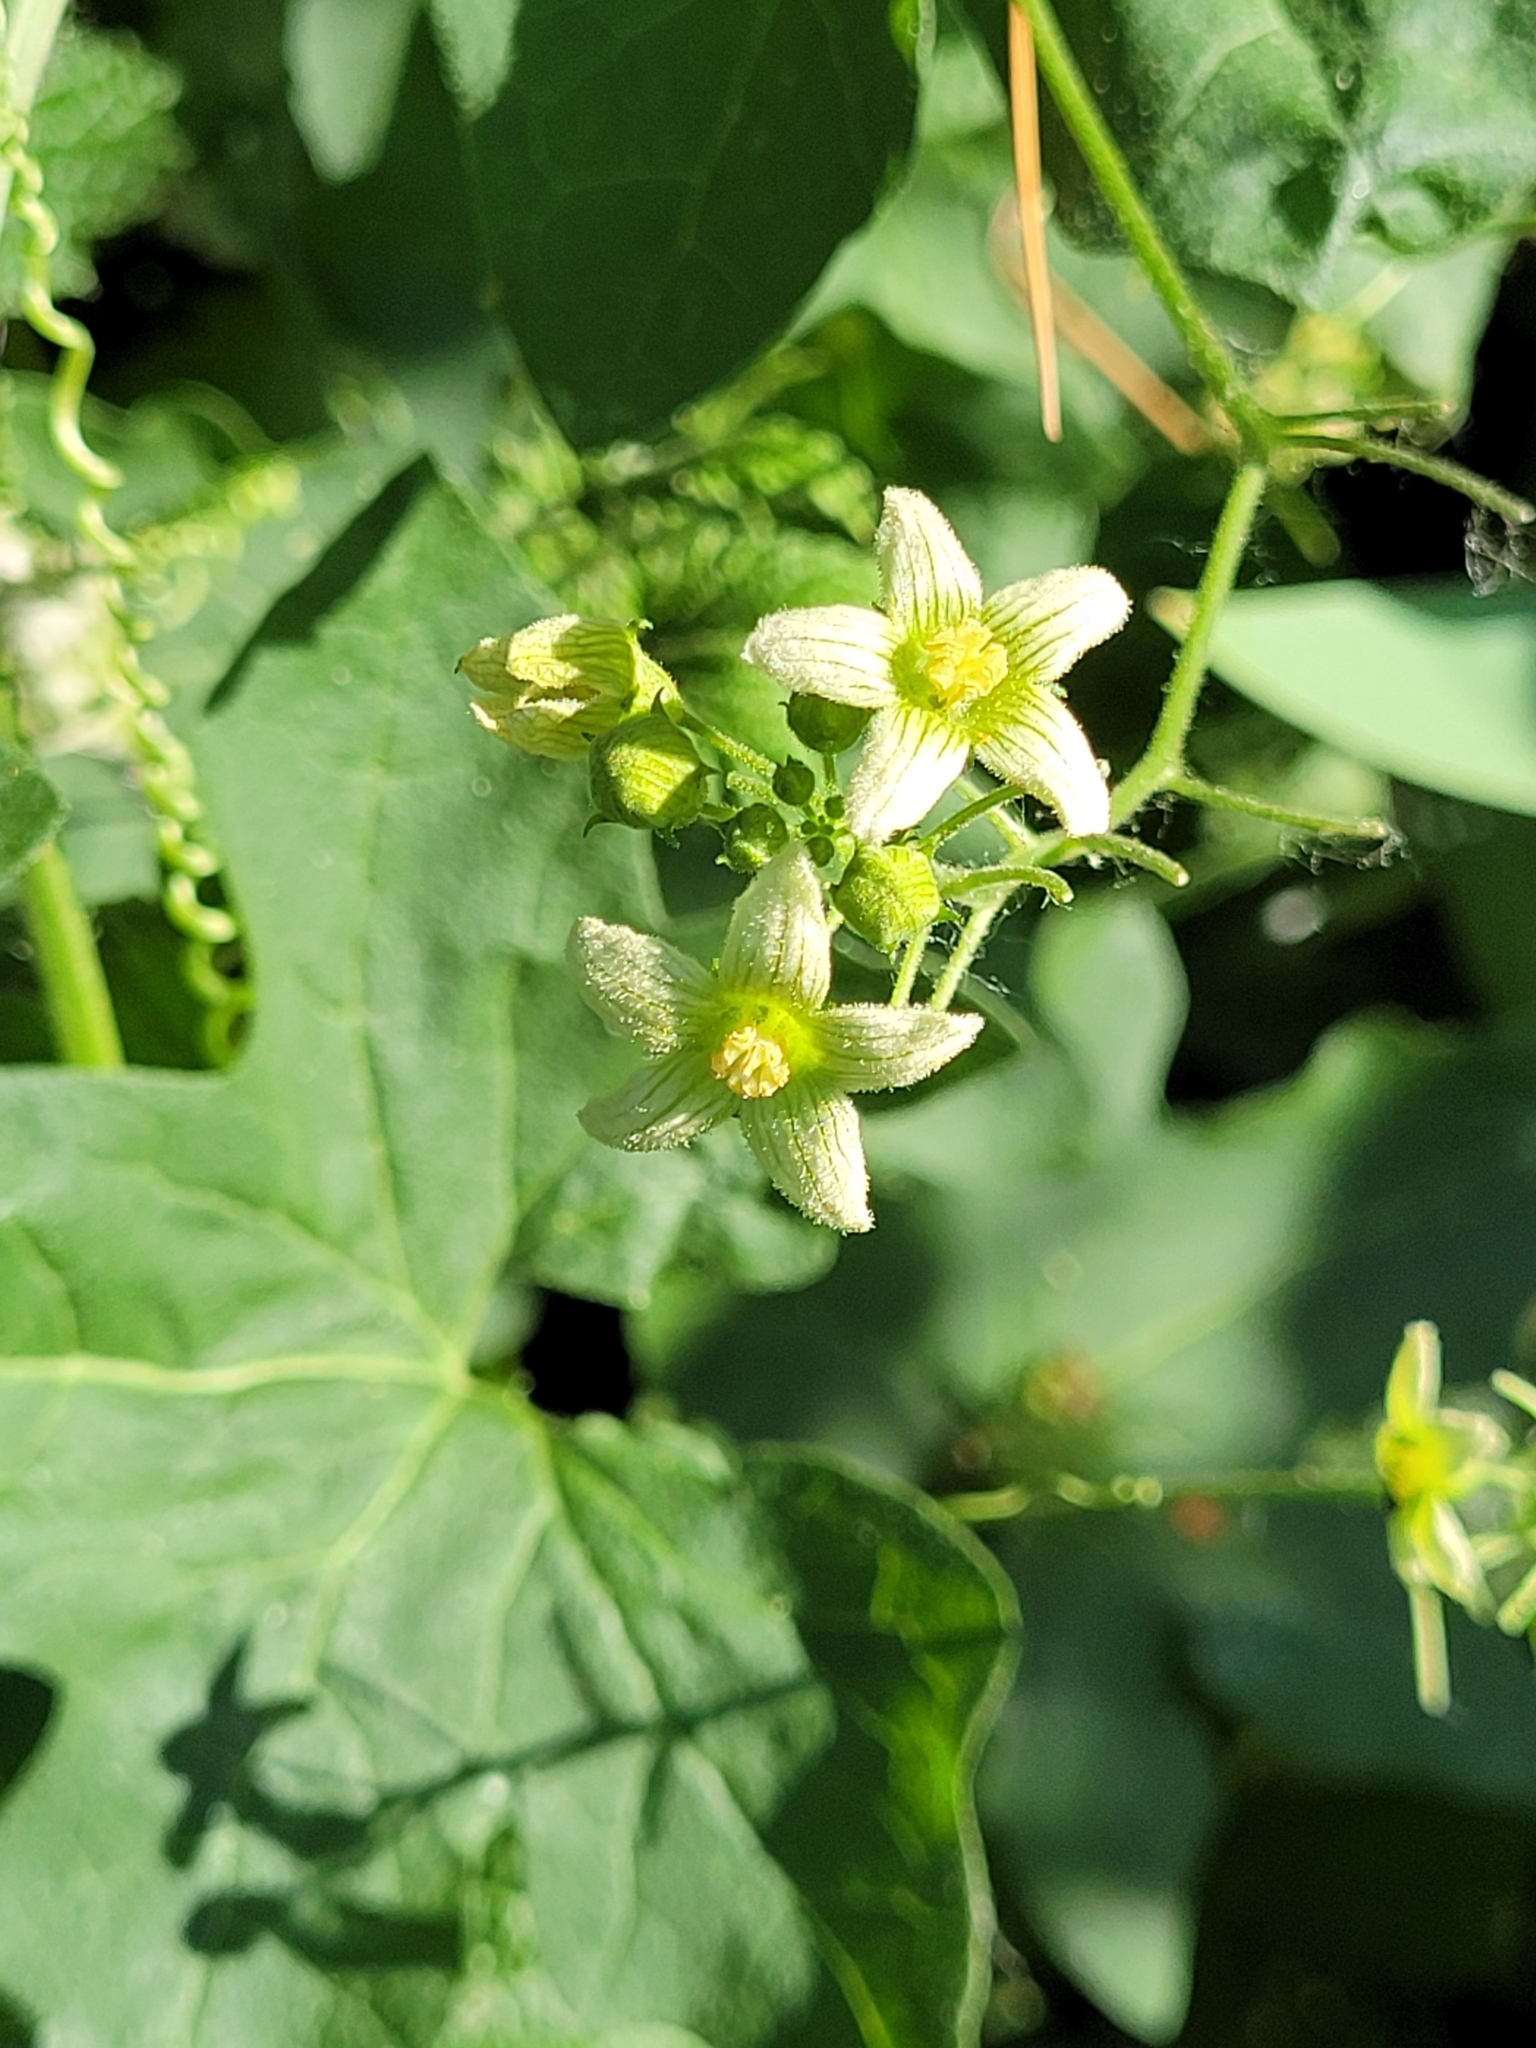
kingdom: Plantae
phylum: Tracheophyta
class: Magnoliopsida
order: Cucurbitales
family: Cucurbitaceae
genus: Bryonia
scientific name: Bryonia cretica
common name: Cretan bryony
